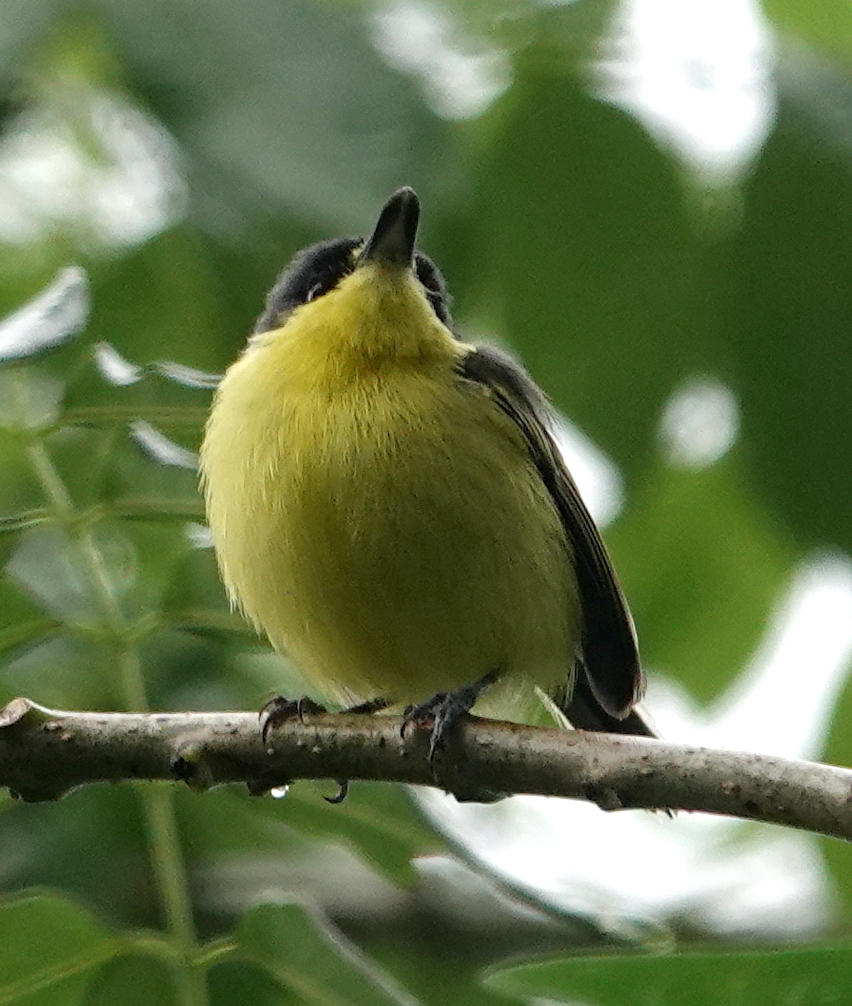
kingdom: Animalia
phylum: Chordata
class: Aves
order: Passeriformes
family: Tyrannidae
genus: Todirostrum
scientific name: Todirostrum cinereum
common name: Common tody-flycatcher
